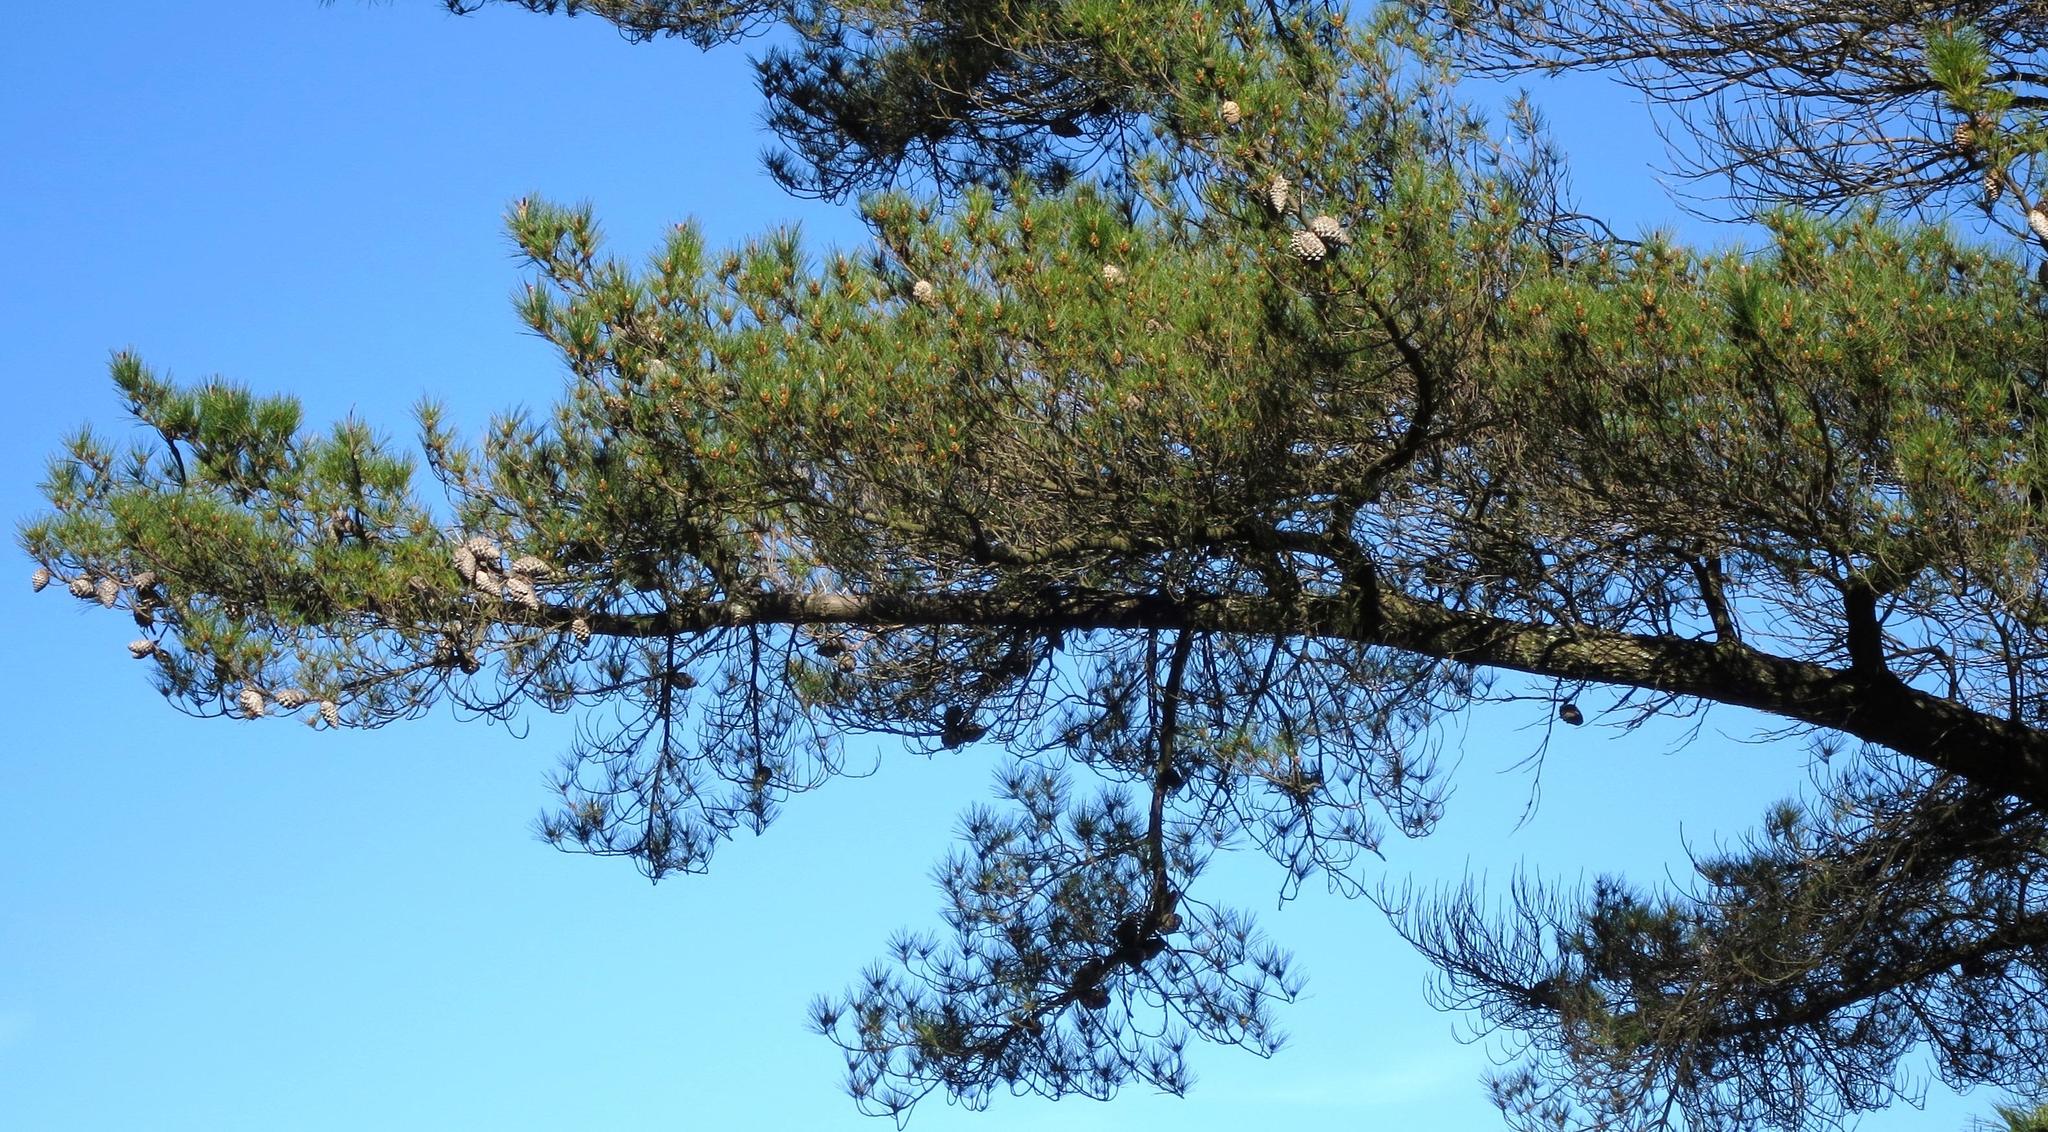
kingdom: Plantae
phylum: Tracheophyta
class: Pinopsida
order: Pinales
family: Pinaceae
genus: Pinus
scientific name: Pinus radiata
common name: Monterey pine
